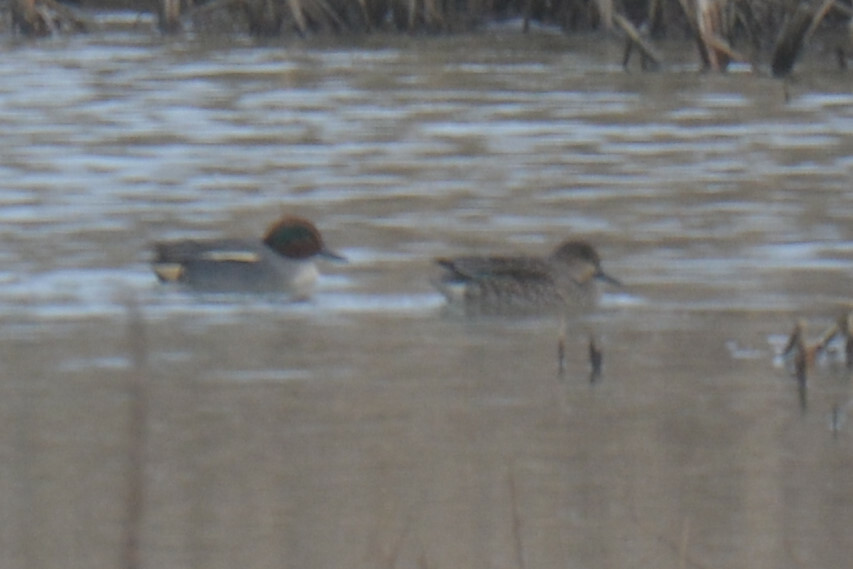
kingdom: Animalia
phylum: Chordata
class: Aves
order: Anseriformes
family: Anatidae
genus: Anas
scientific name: Anas crecca
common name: Eurasian teal
